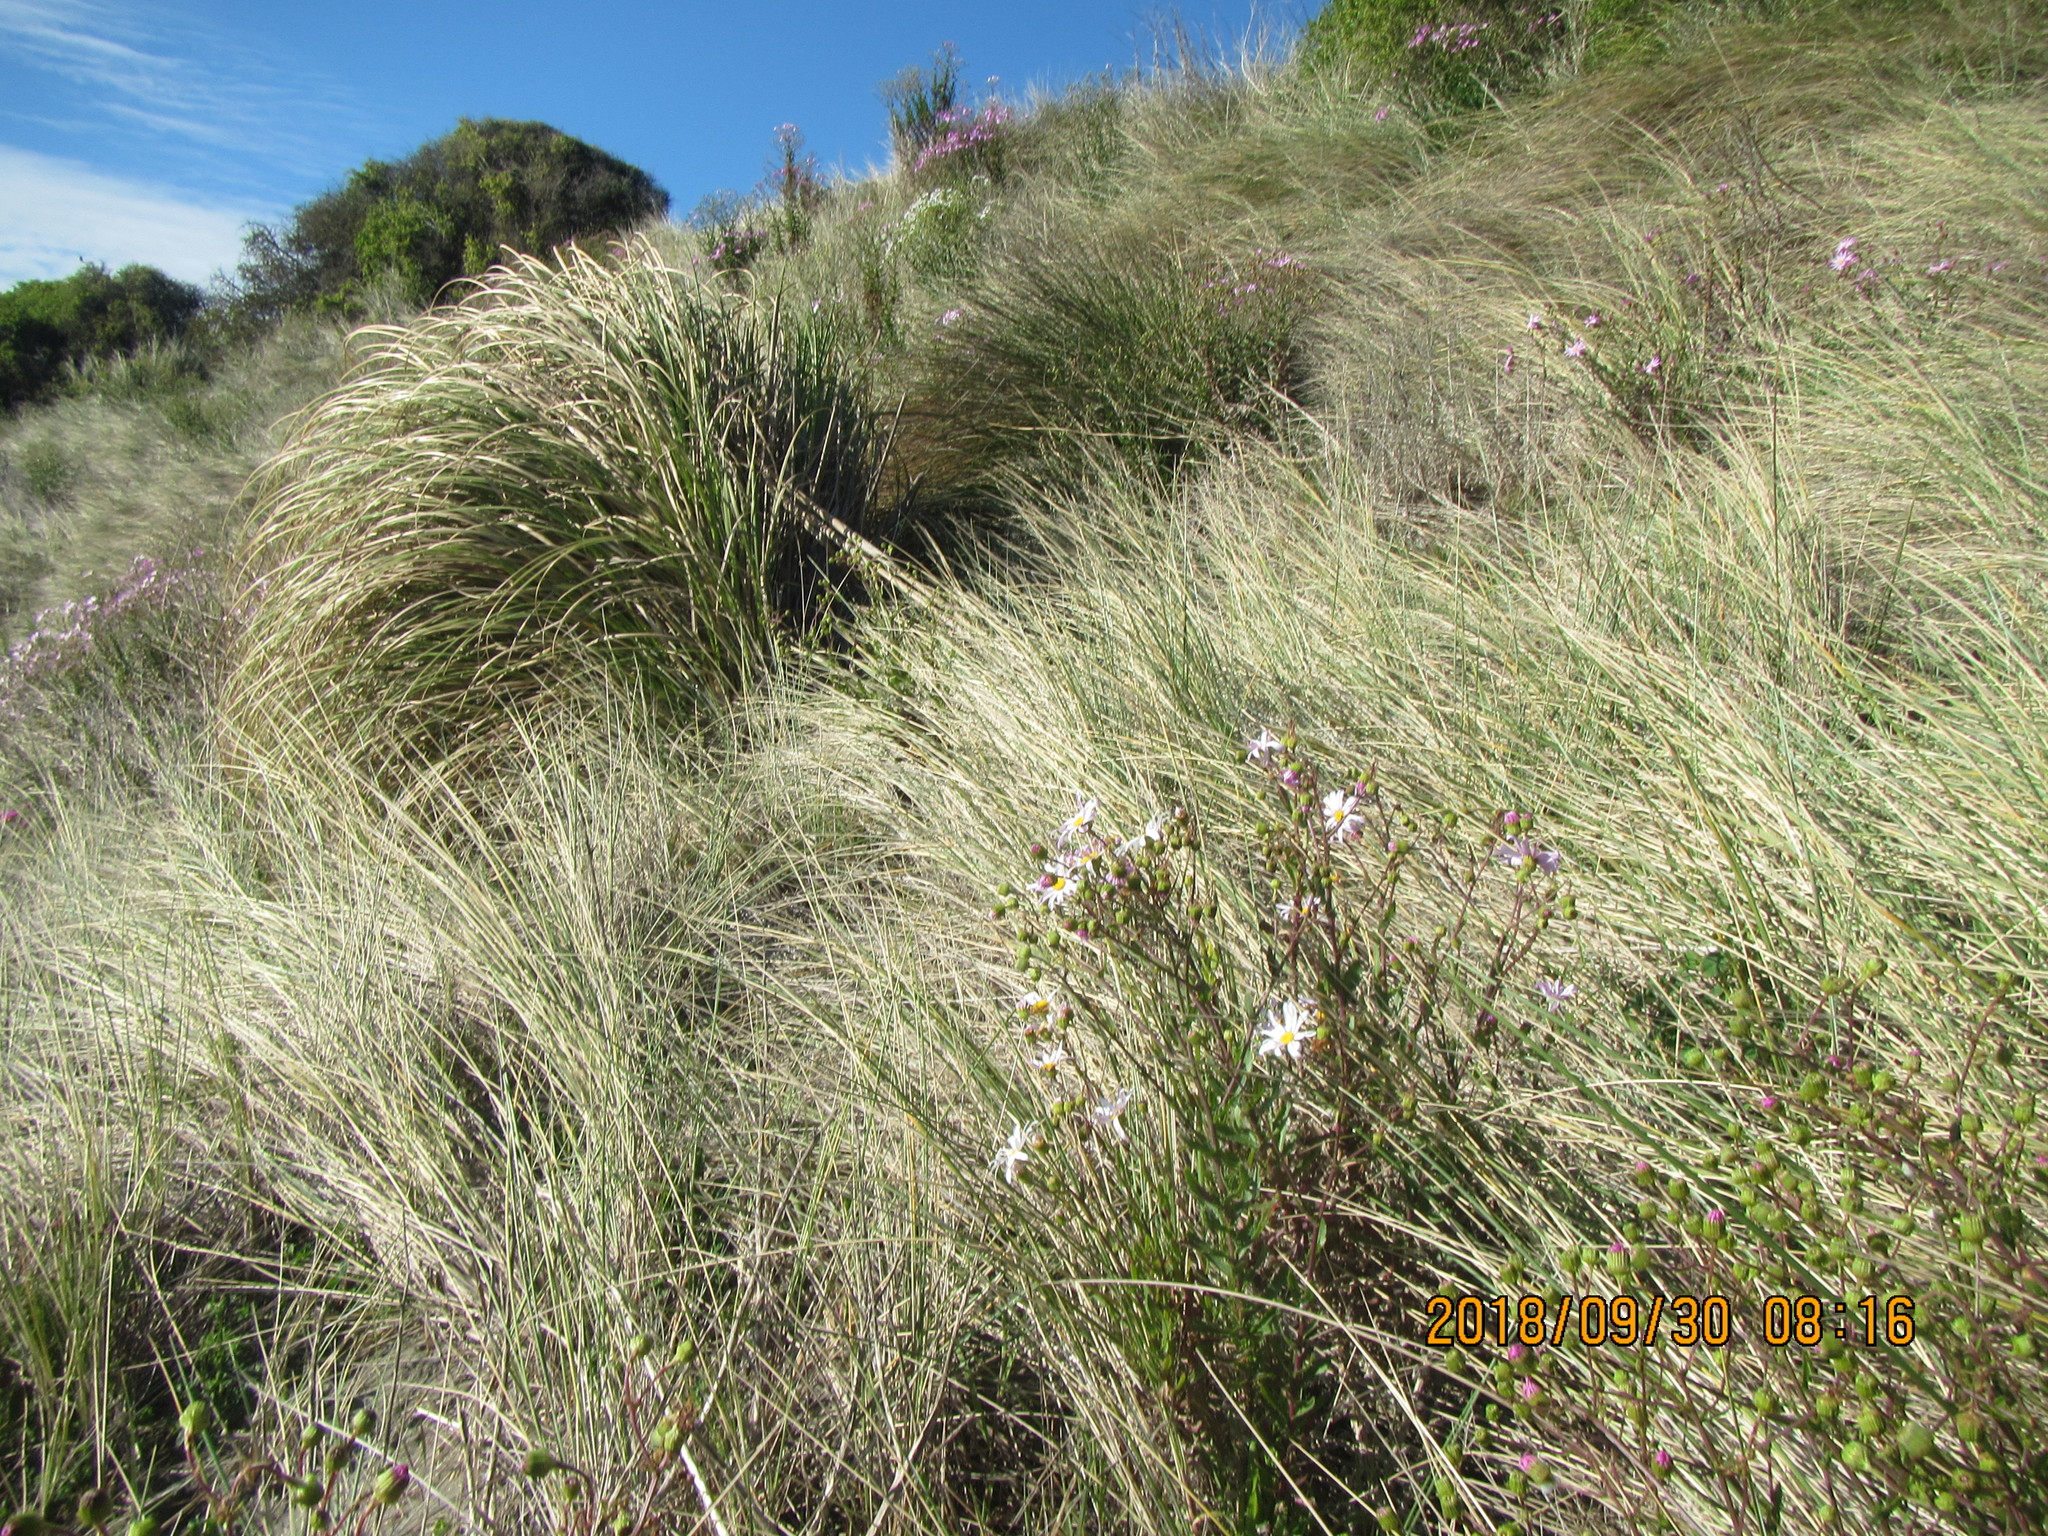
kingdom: Plantae
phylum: Tracheophyta
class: Magnoliopsida
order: Asterales
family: Asteraceae
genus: Senecio
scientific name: Senecio glastifolius
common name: Woad-leaved ragwort
